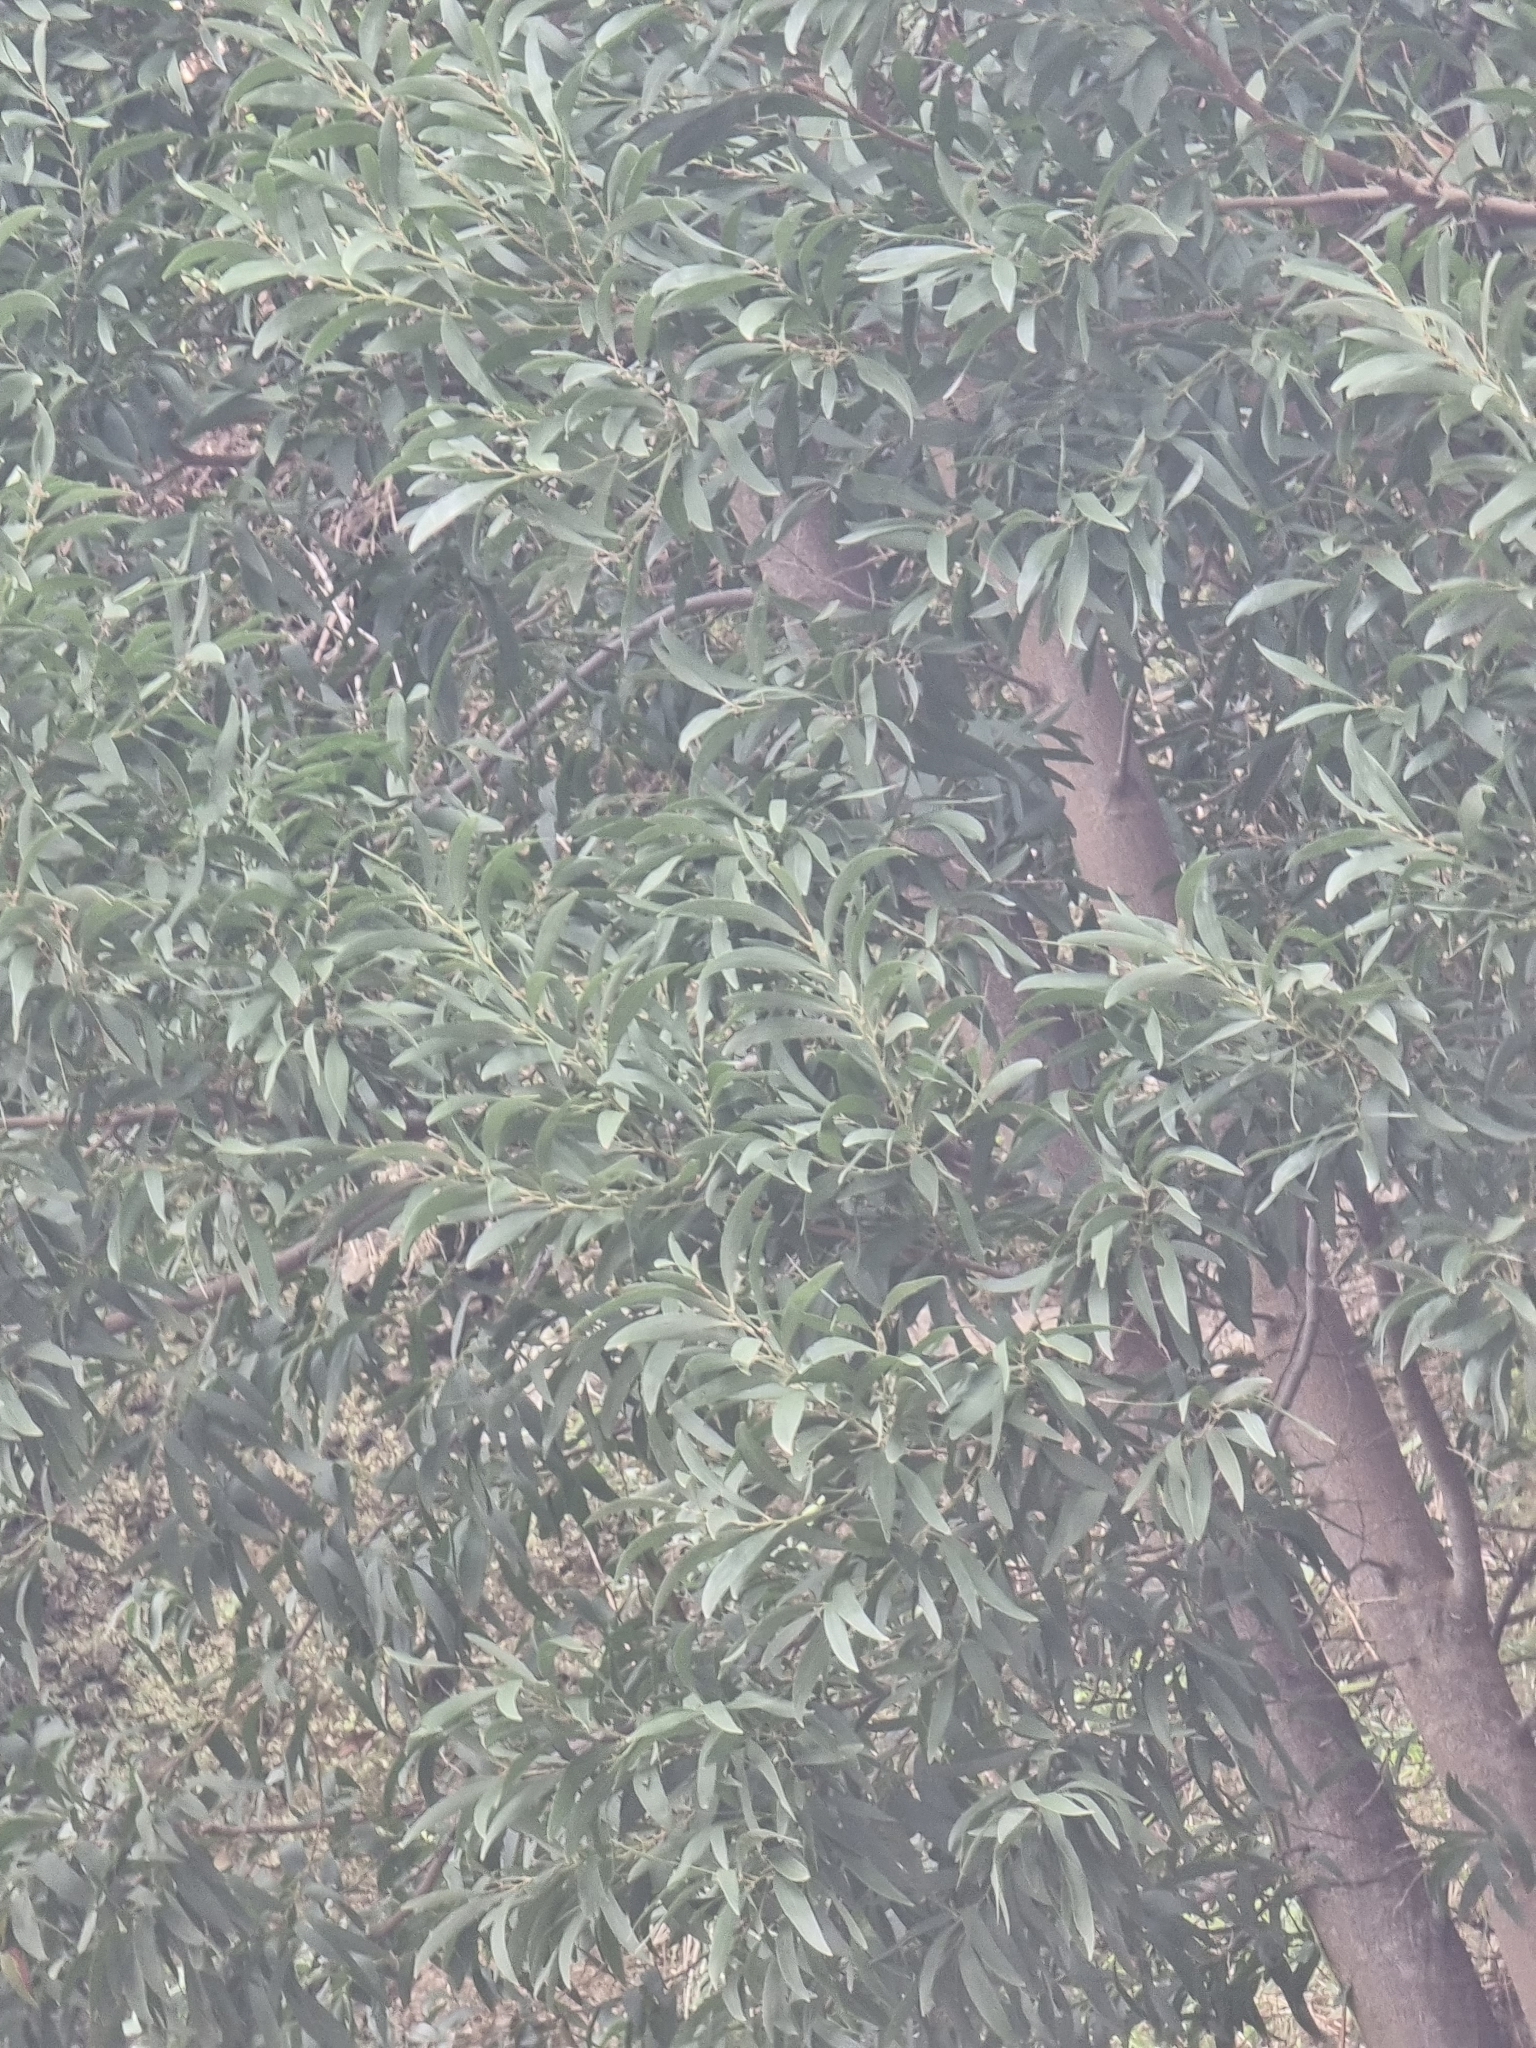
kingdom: Plantae
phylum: Tracheophyta
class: Magnoliopsida
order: Fabales
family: Fabaceae
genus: Acacia
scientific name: Acacia melanoxylon
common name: Blackwood
